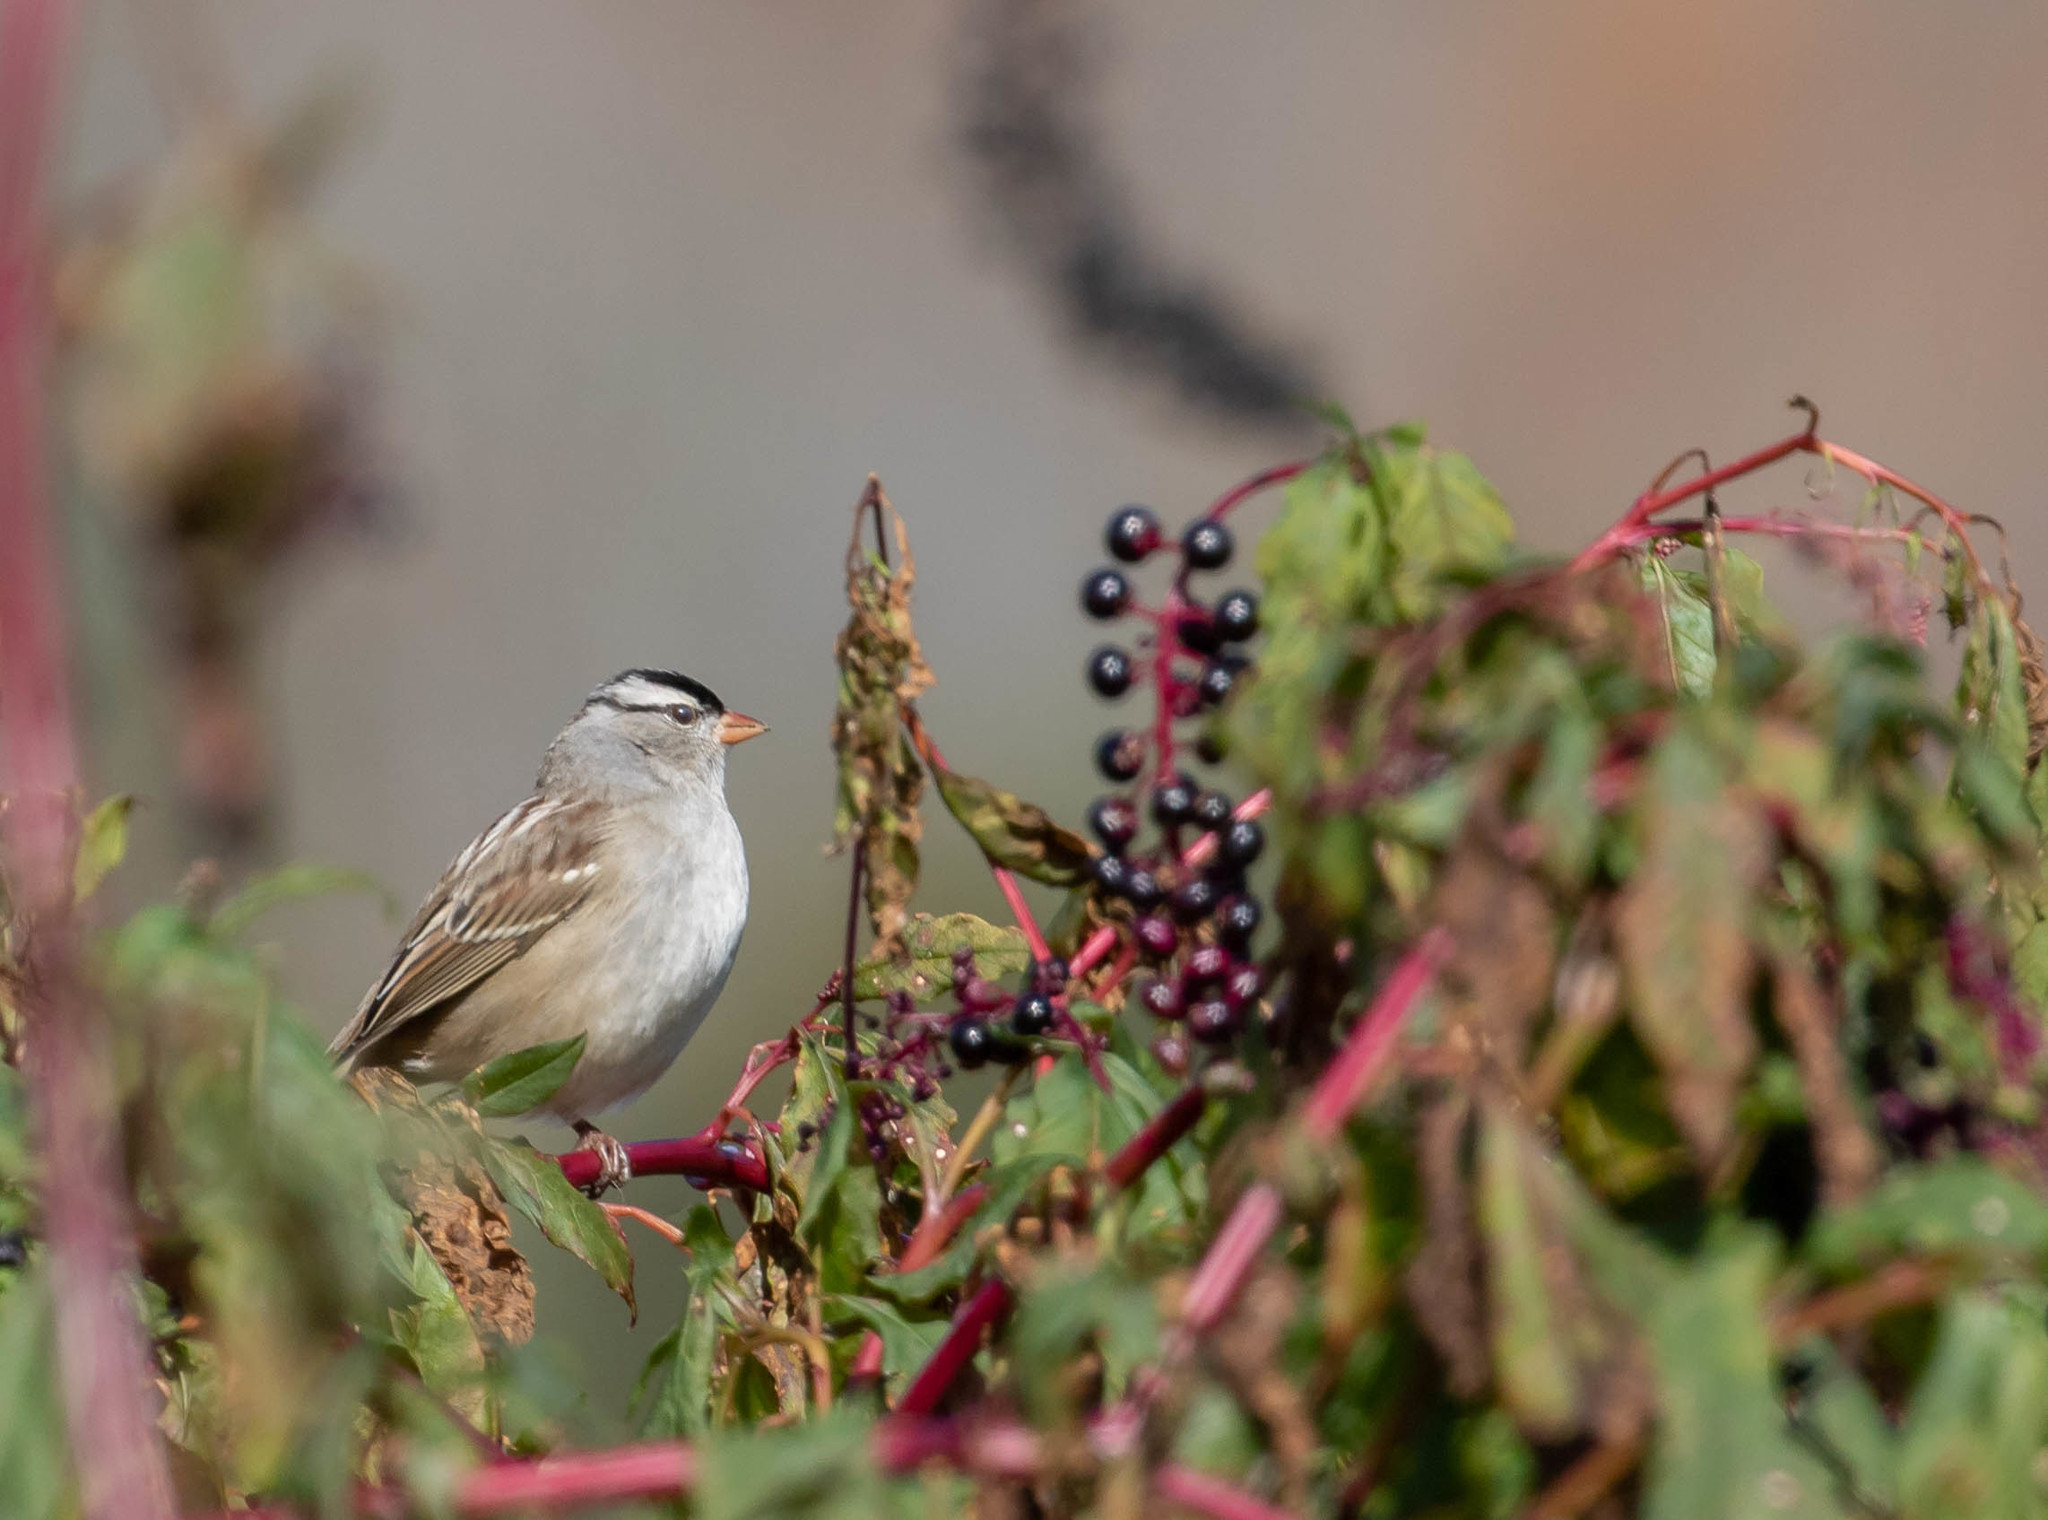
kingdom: Animalia
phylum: Chordata
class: Aves
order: Passeriformes
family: Passerellidae
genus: Zonotrichia
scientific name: Zonotrichia leucophrys
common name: White-crowned sparrow
